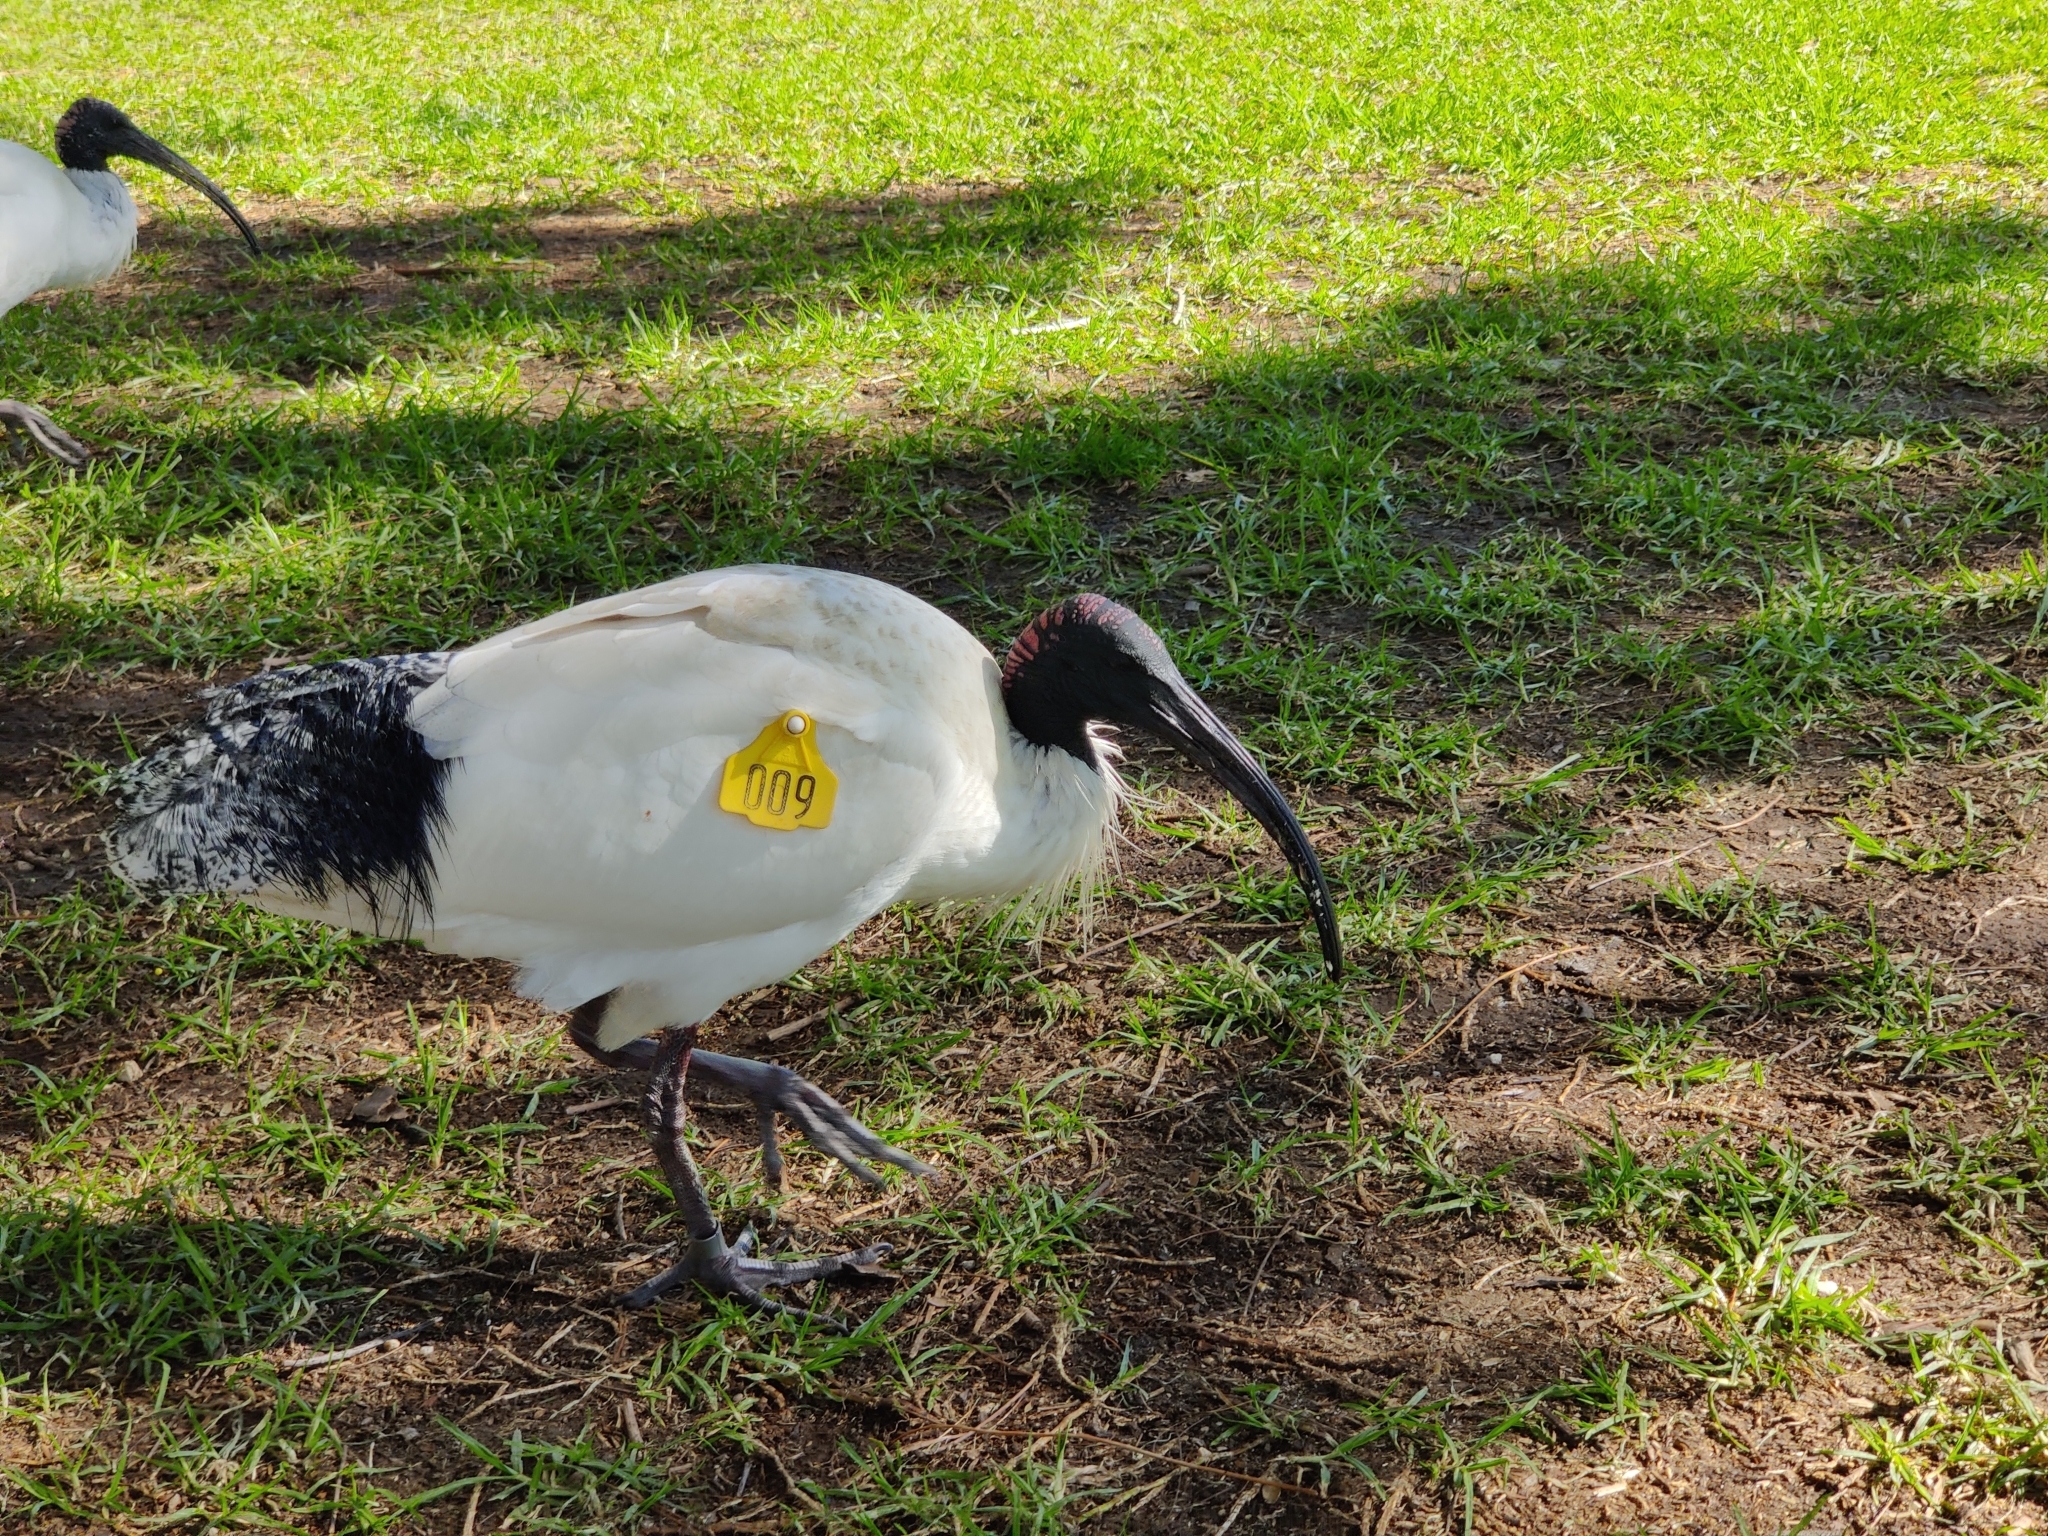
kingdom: Animalia
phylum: Chordata
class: Aves
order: Pelecaniformes
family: Threskiornithidae
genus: Threskiornis
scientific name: Threskiornis molucca
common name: Australian white ibis
